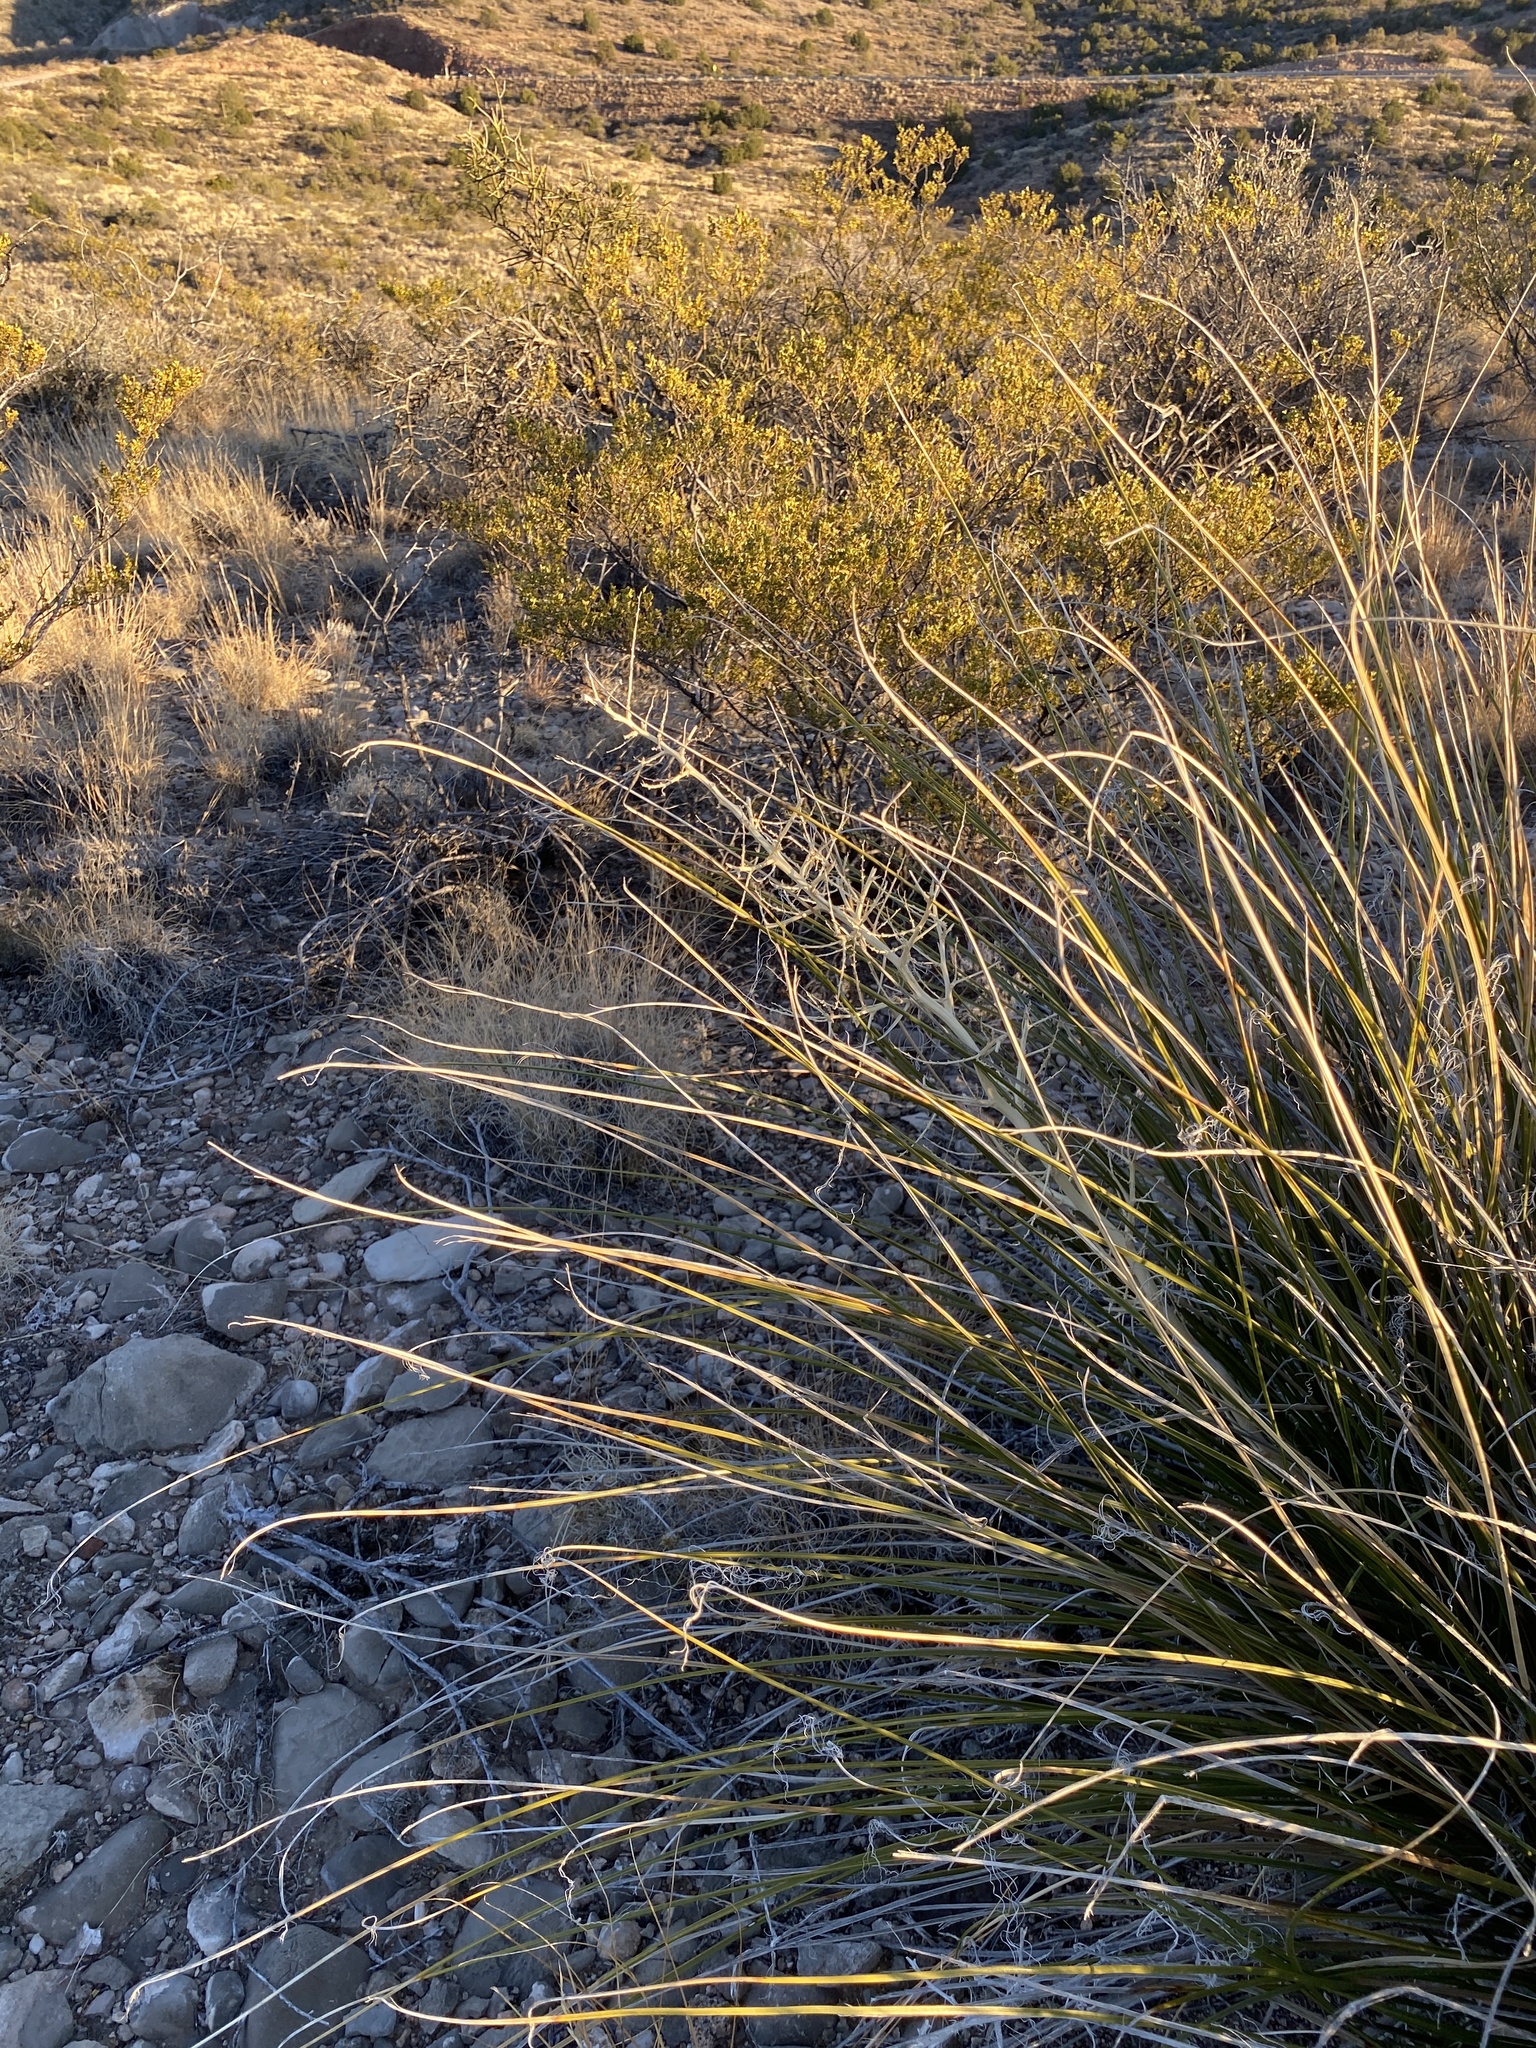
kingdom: Plantae
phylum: Tracheophyta
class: Liliopsida
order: Asparagales
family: Asparagaceae
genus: Nolina
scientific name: Nolina microcarpa
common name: Bear-grass
